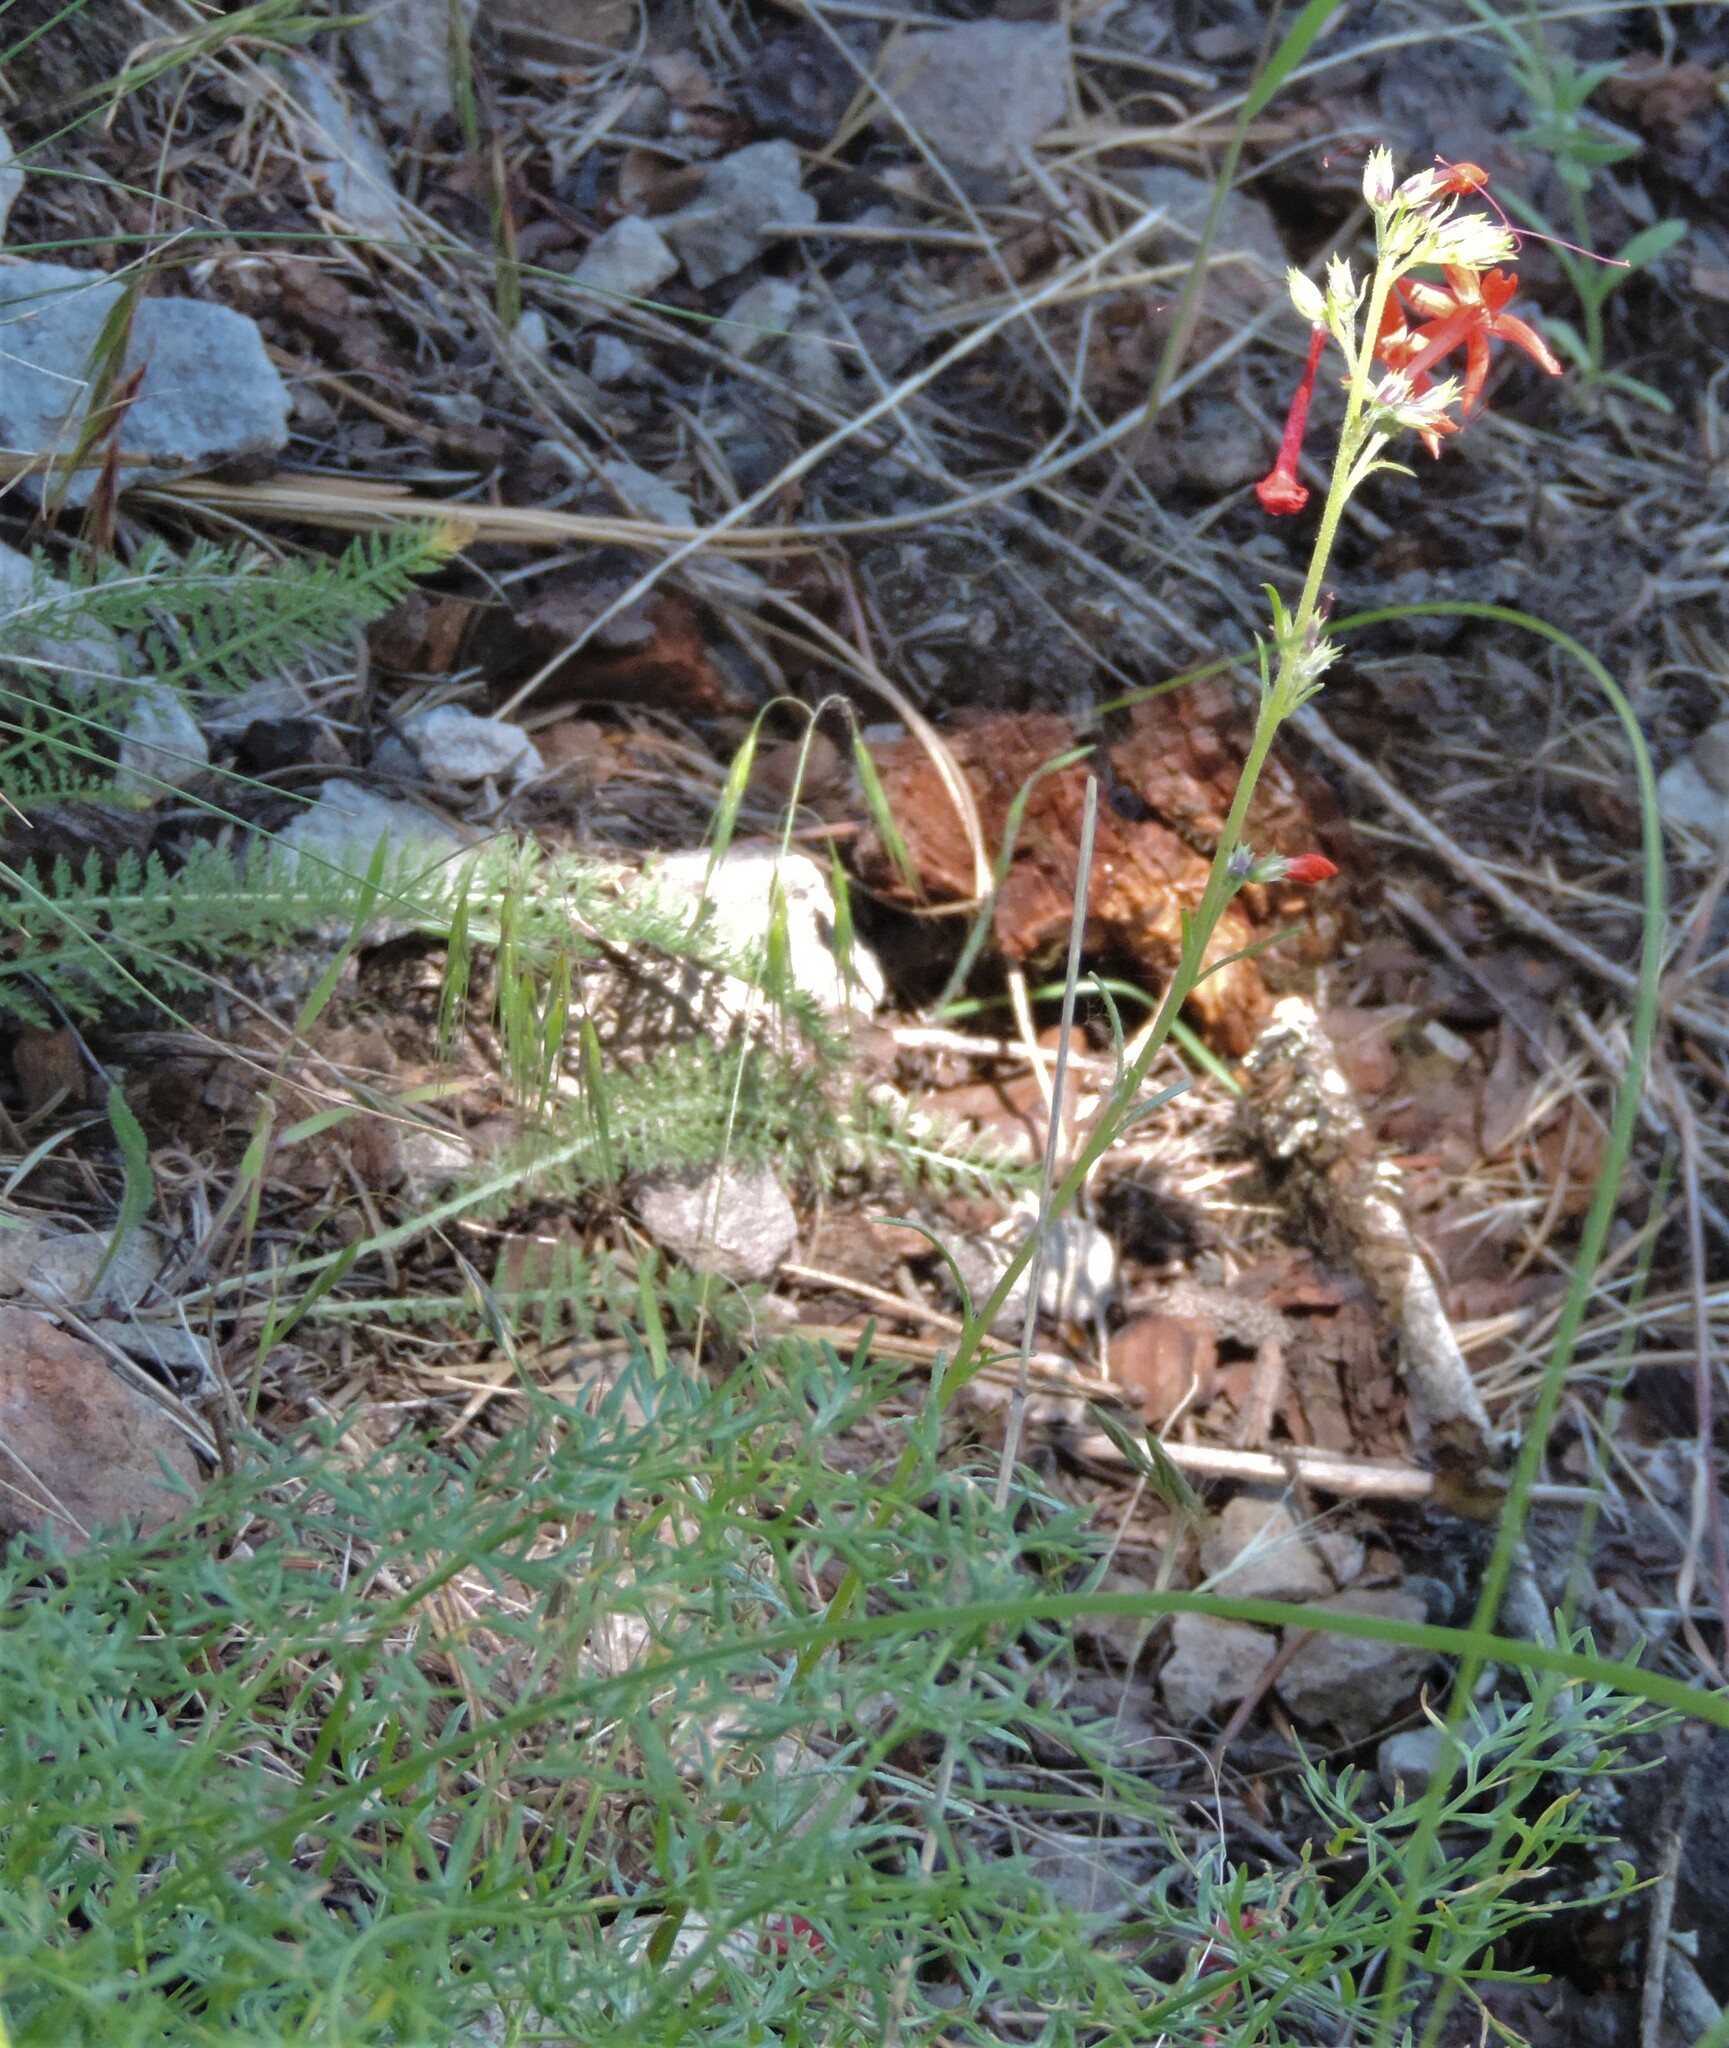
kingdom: Plantae
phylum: Tracheophyta
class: Magnoliopsida
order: Ericales
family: Polemoniaceae
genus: Ipomopsis
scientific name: Ipomopsis aggregata
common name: Scarlet gilia
